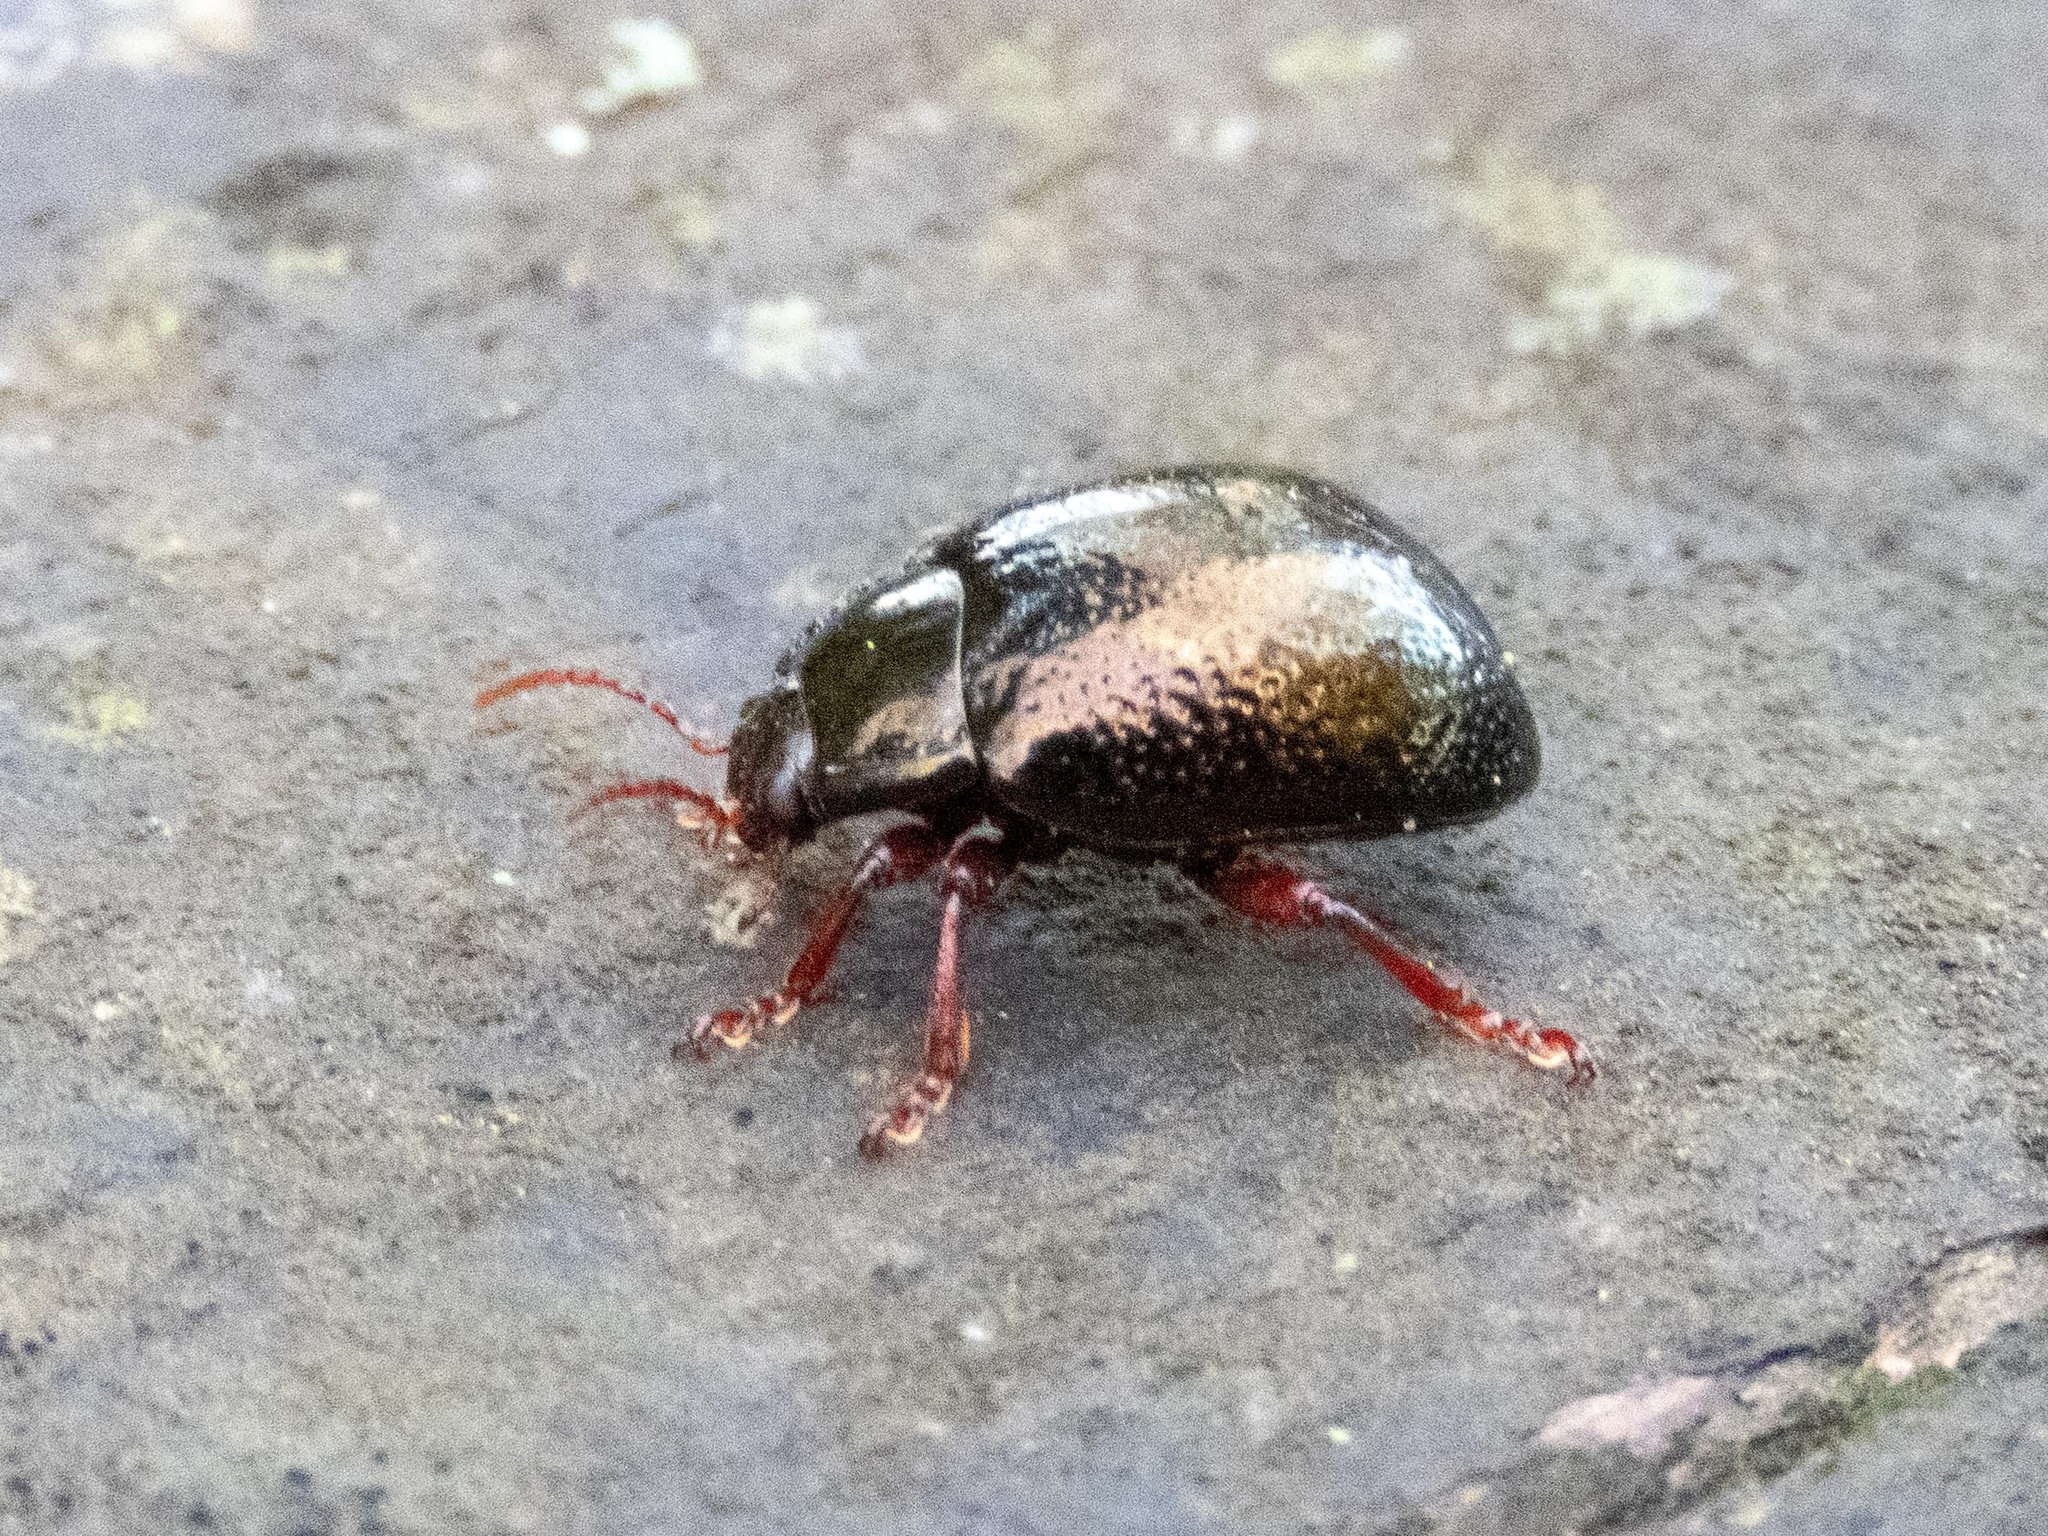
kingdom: Animalia
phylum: Arthropoda
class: Insecta
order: Coleoptera
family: Chrysomelidae
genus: Chrysolina
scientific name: Chrysolina bankii
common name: Leaf beetle
